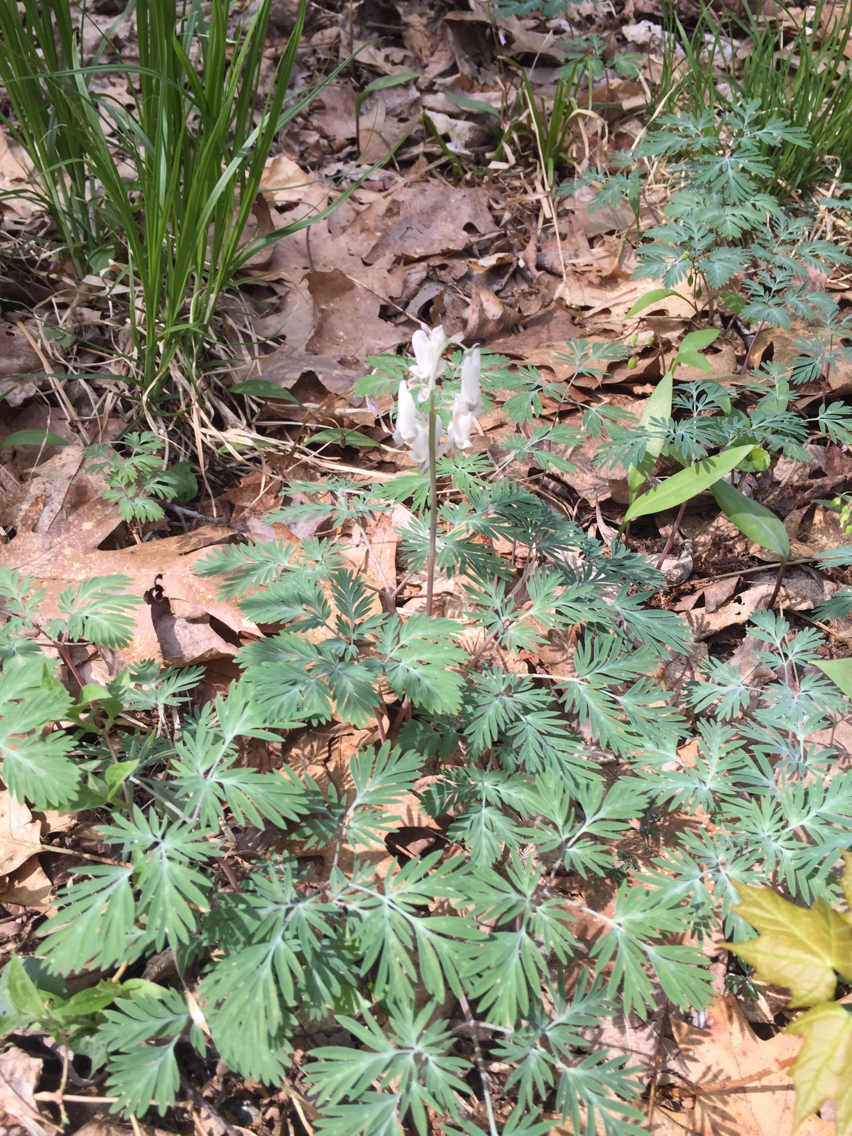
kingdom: Plantae
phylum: Tracheophyta
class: Magnoliopsida
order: Ranunculales
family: Papaveraceae
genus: Dicentra
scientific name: Dicentra canadensis
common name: Squirrel-corn
